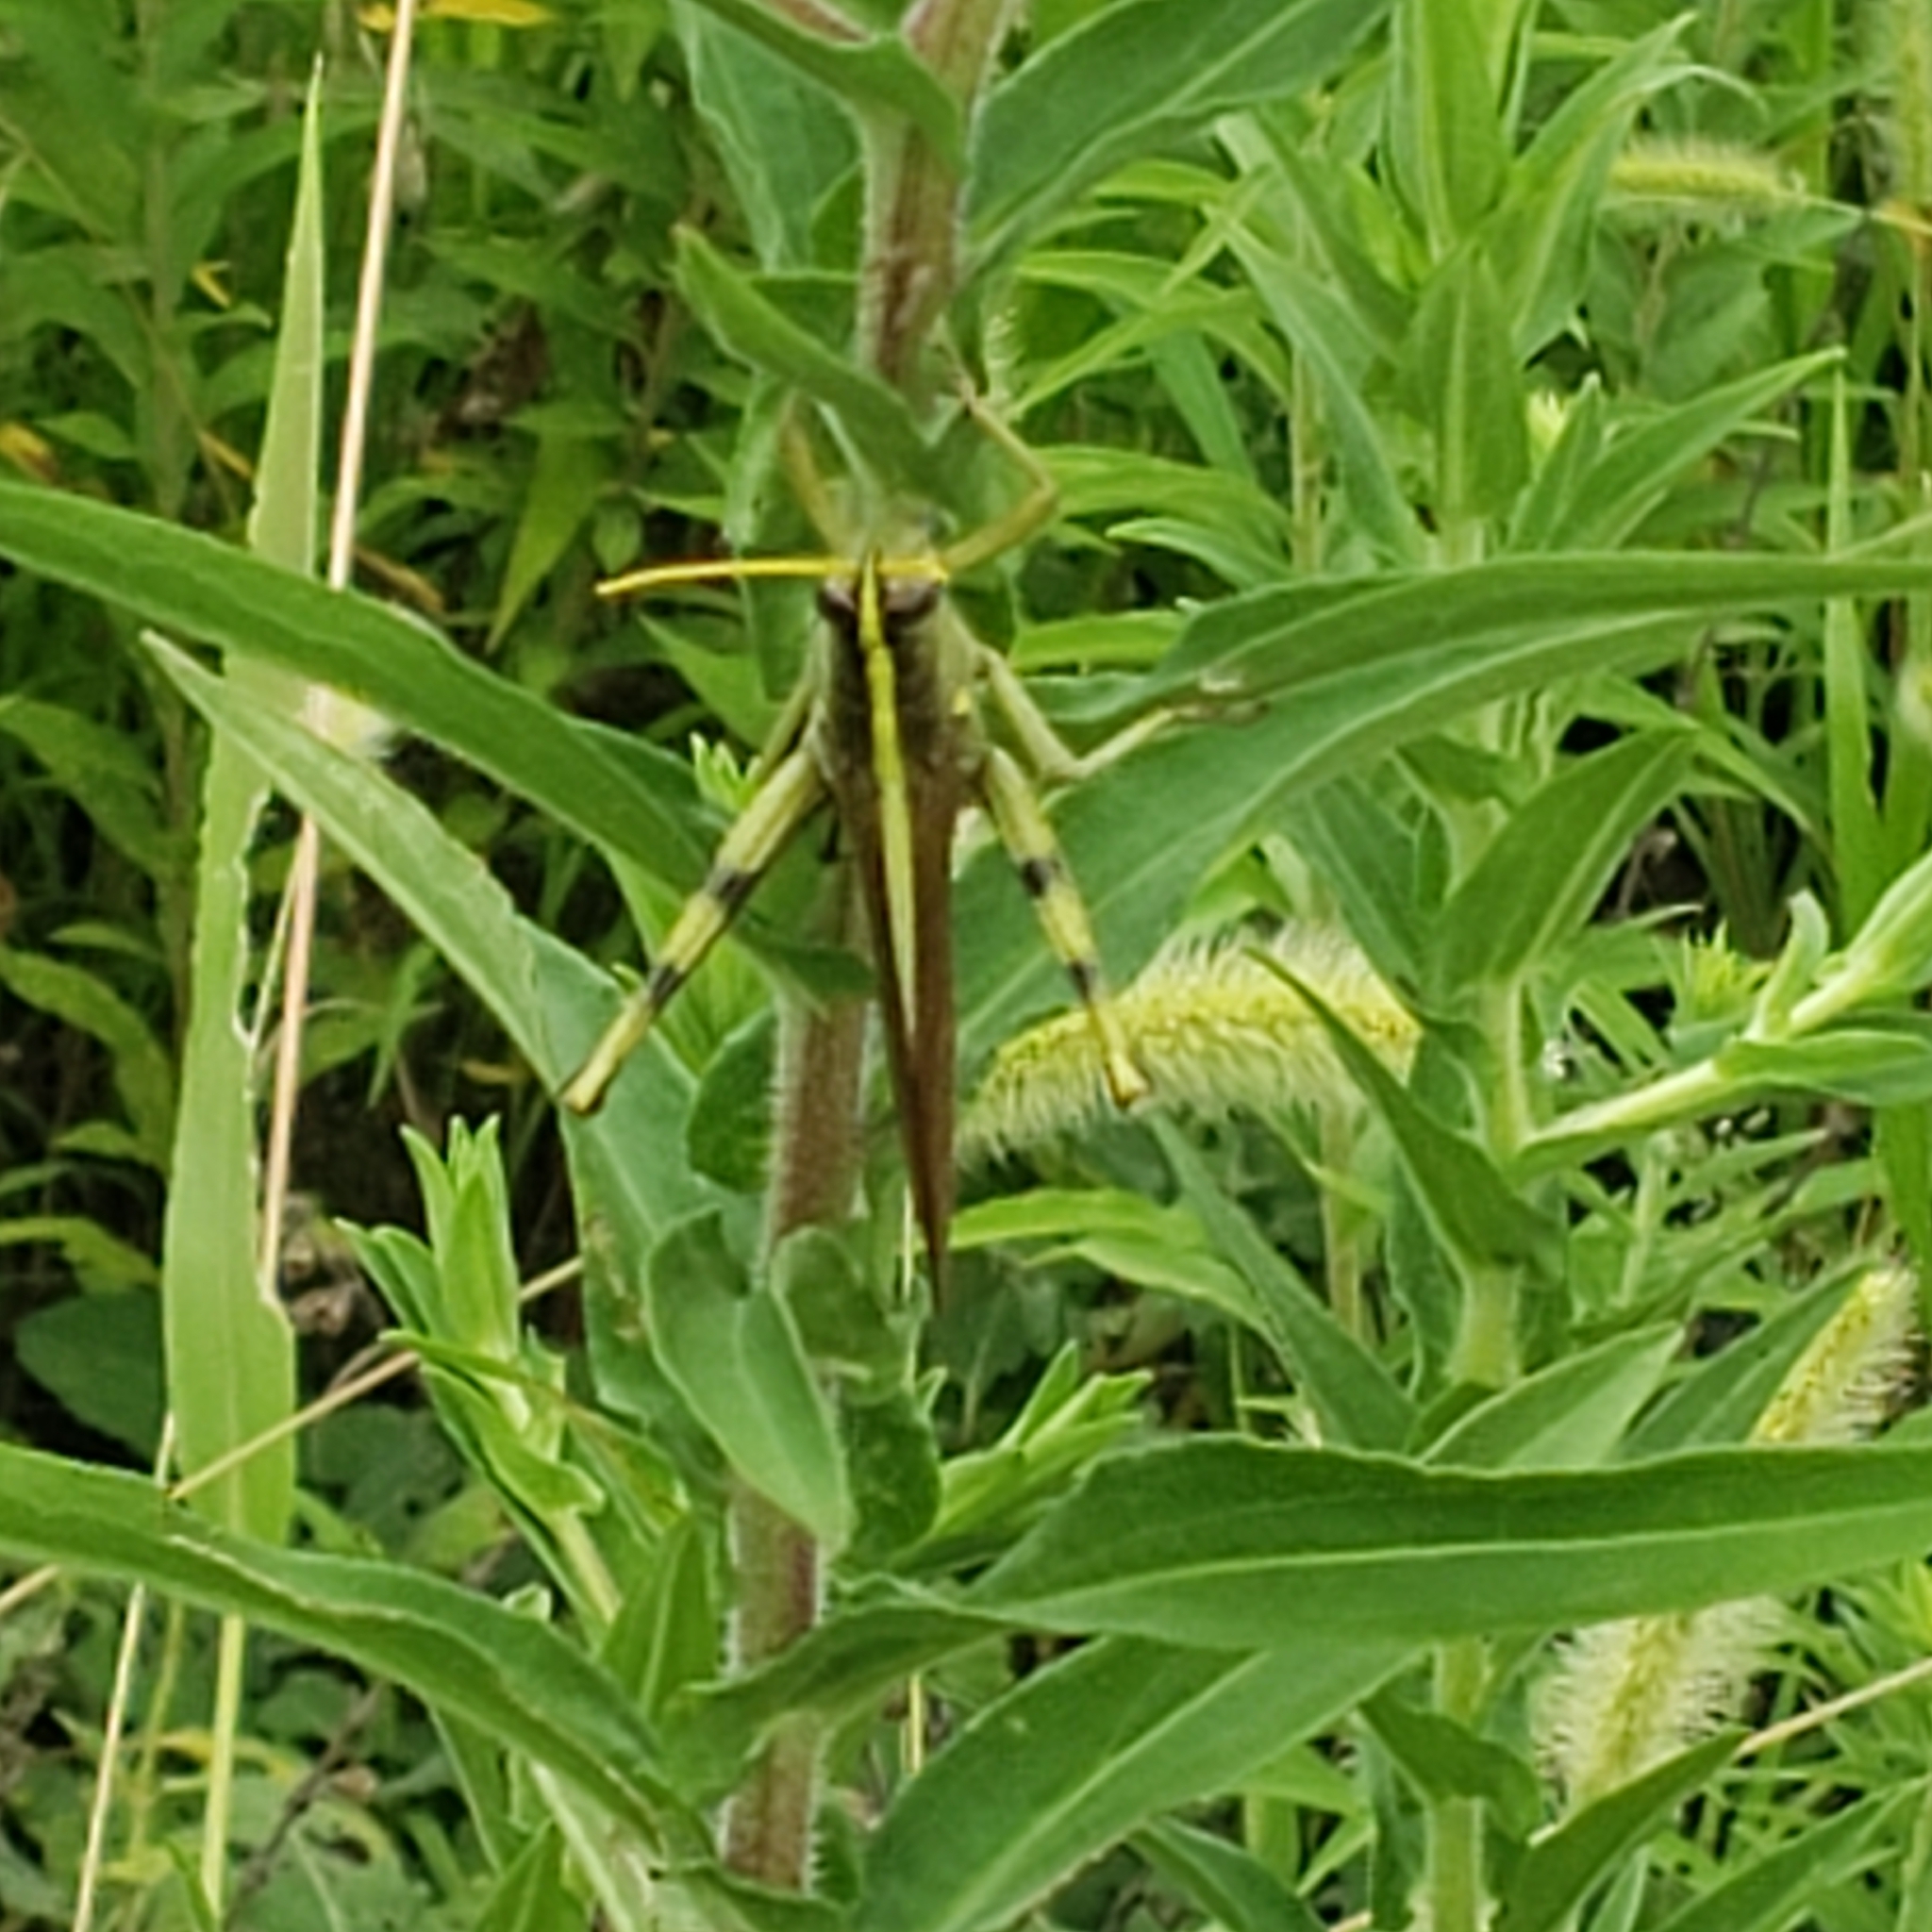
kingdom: Animalia
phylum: Arthropoda
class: Insecta
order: Orthoptera
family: Acrididae
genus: Schistocerca
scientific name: Schistocerca obscura
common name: Obscure bird grasshopper
